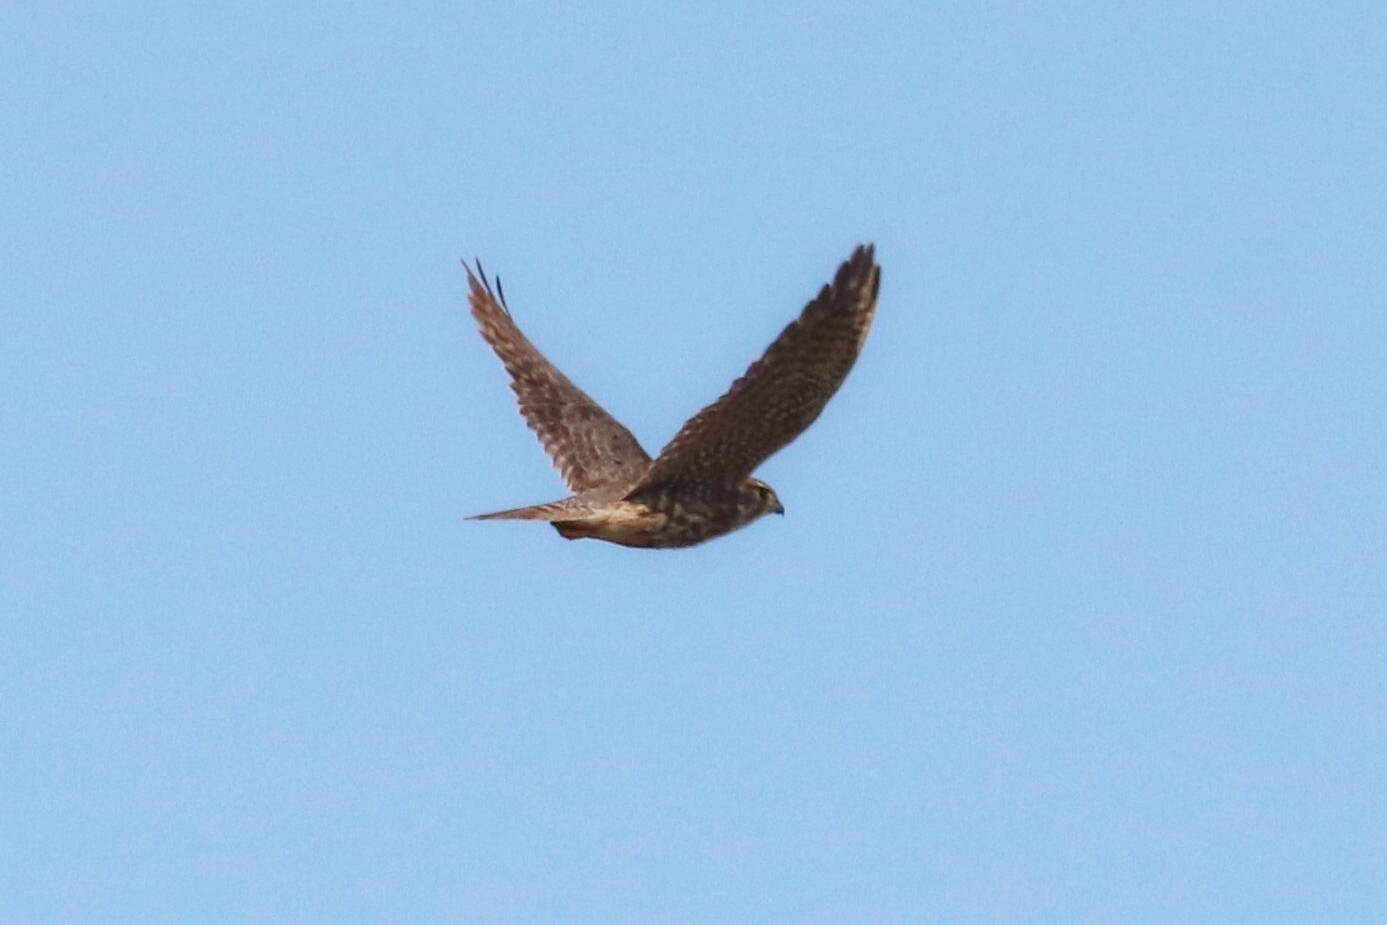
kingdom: Animalia
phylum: Chordata
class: Aves
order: Falconiformes
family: Falconidae
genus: Falco
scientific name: Falco columbarius
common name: Merlin
